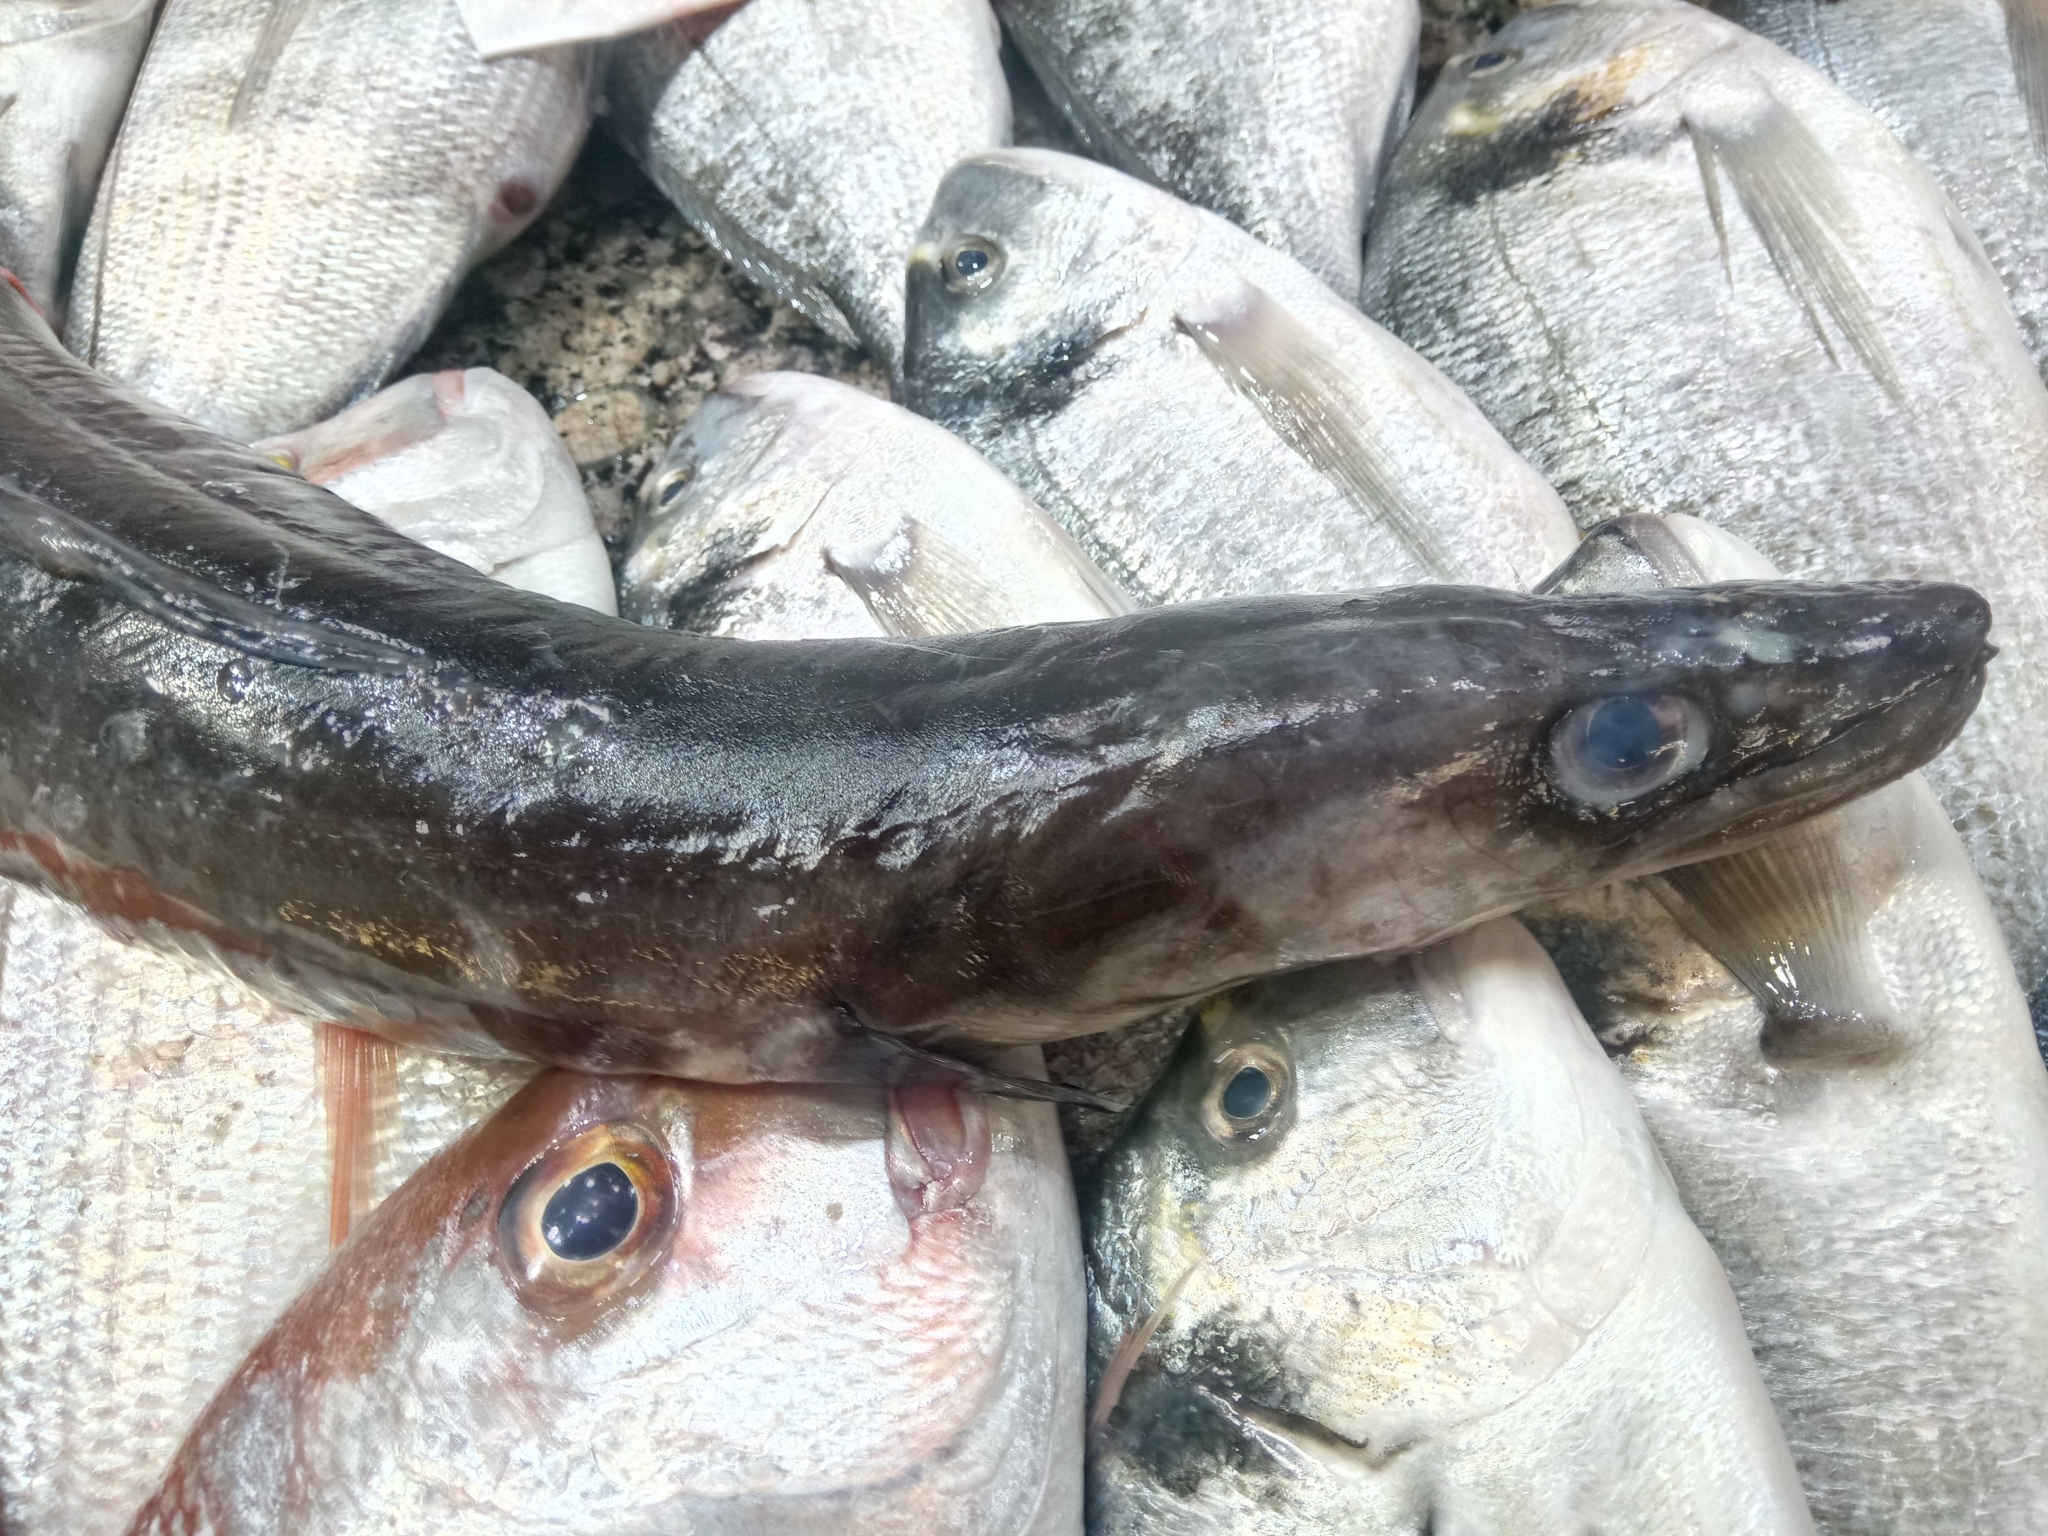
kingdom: Animalia
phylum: Chordata
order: Anguilliformes
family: Congridae
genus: Conger
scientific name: Conger conger
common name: Conger eel
